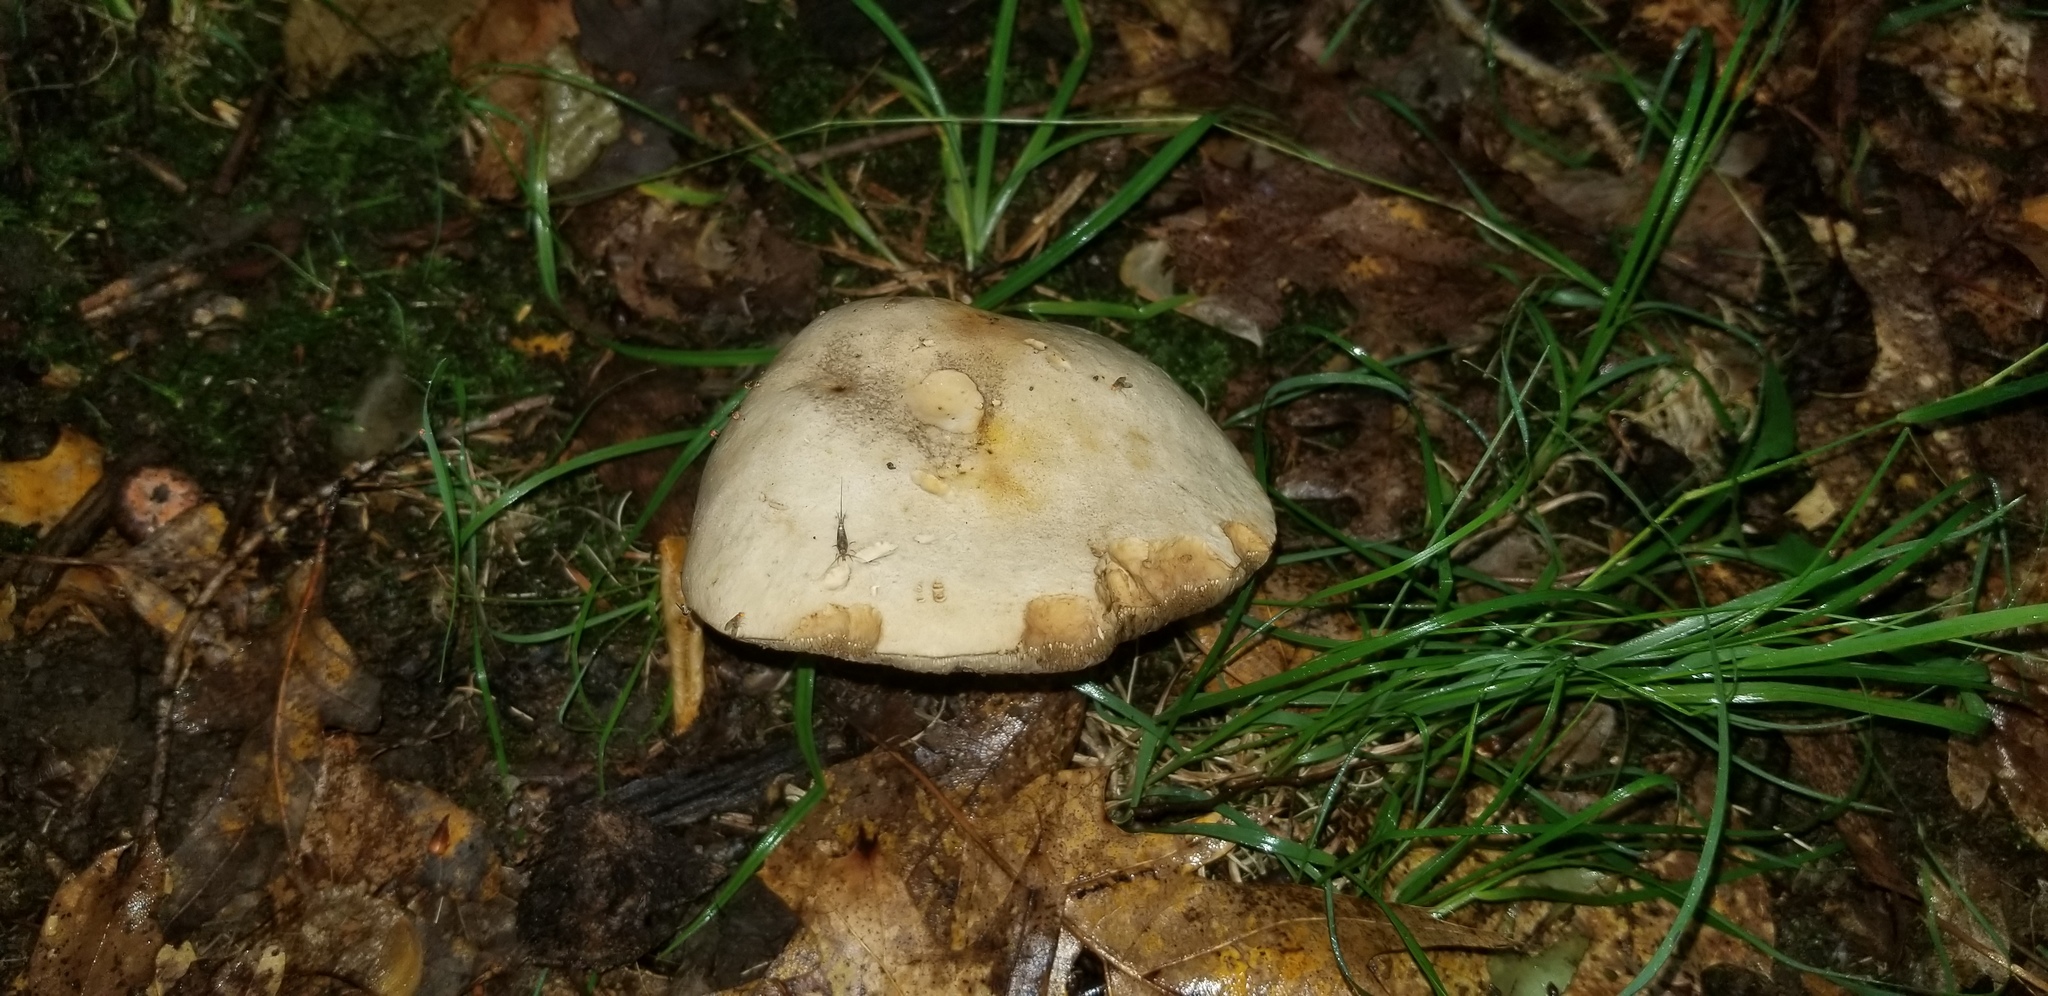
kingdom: Fungi
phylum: Basidiomycota
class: Agaricomycetes
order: Boletales
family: Boletaceae
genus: Retiboletus
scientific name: Retiboletus griseus
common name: Grey bolete
